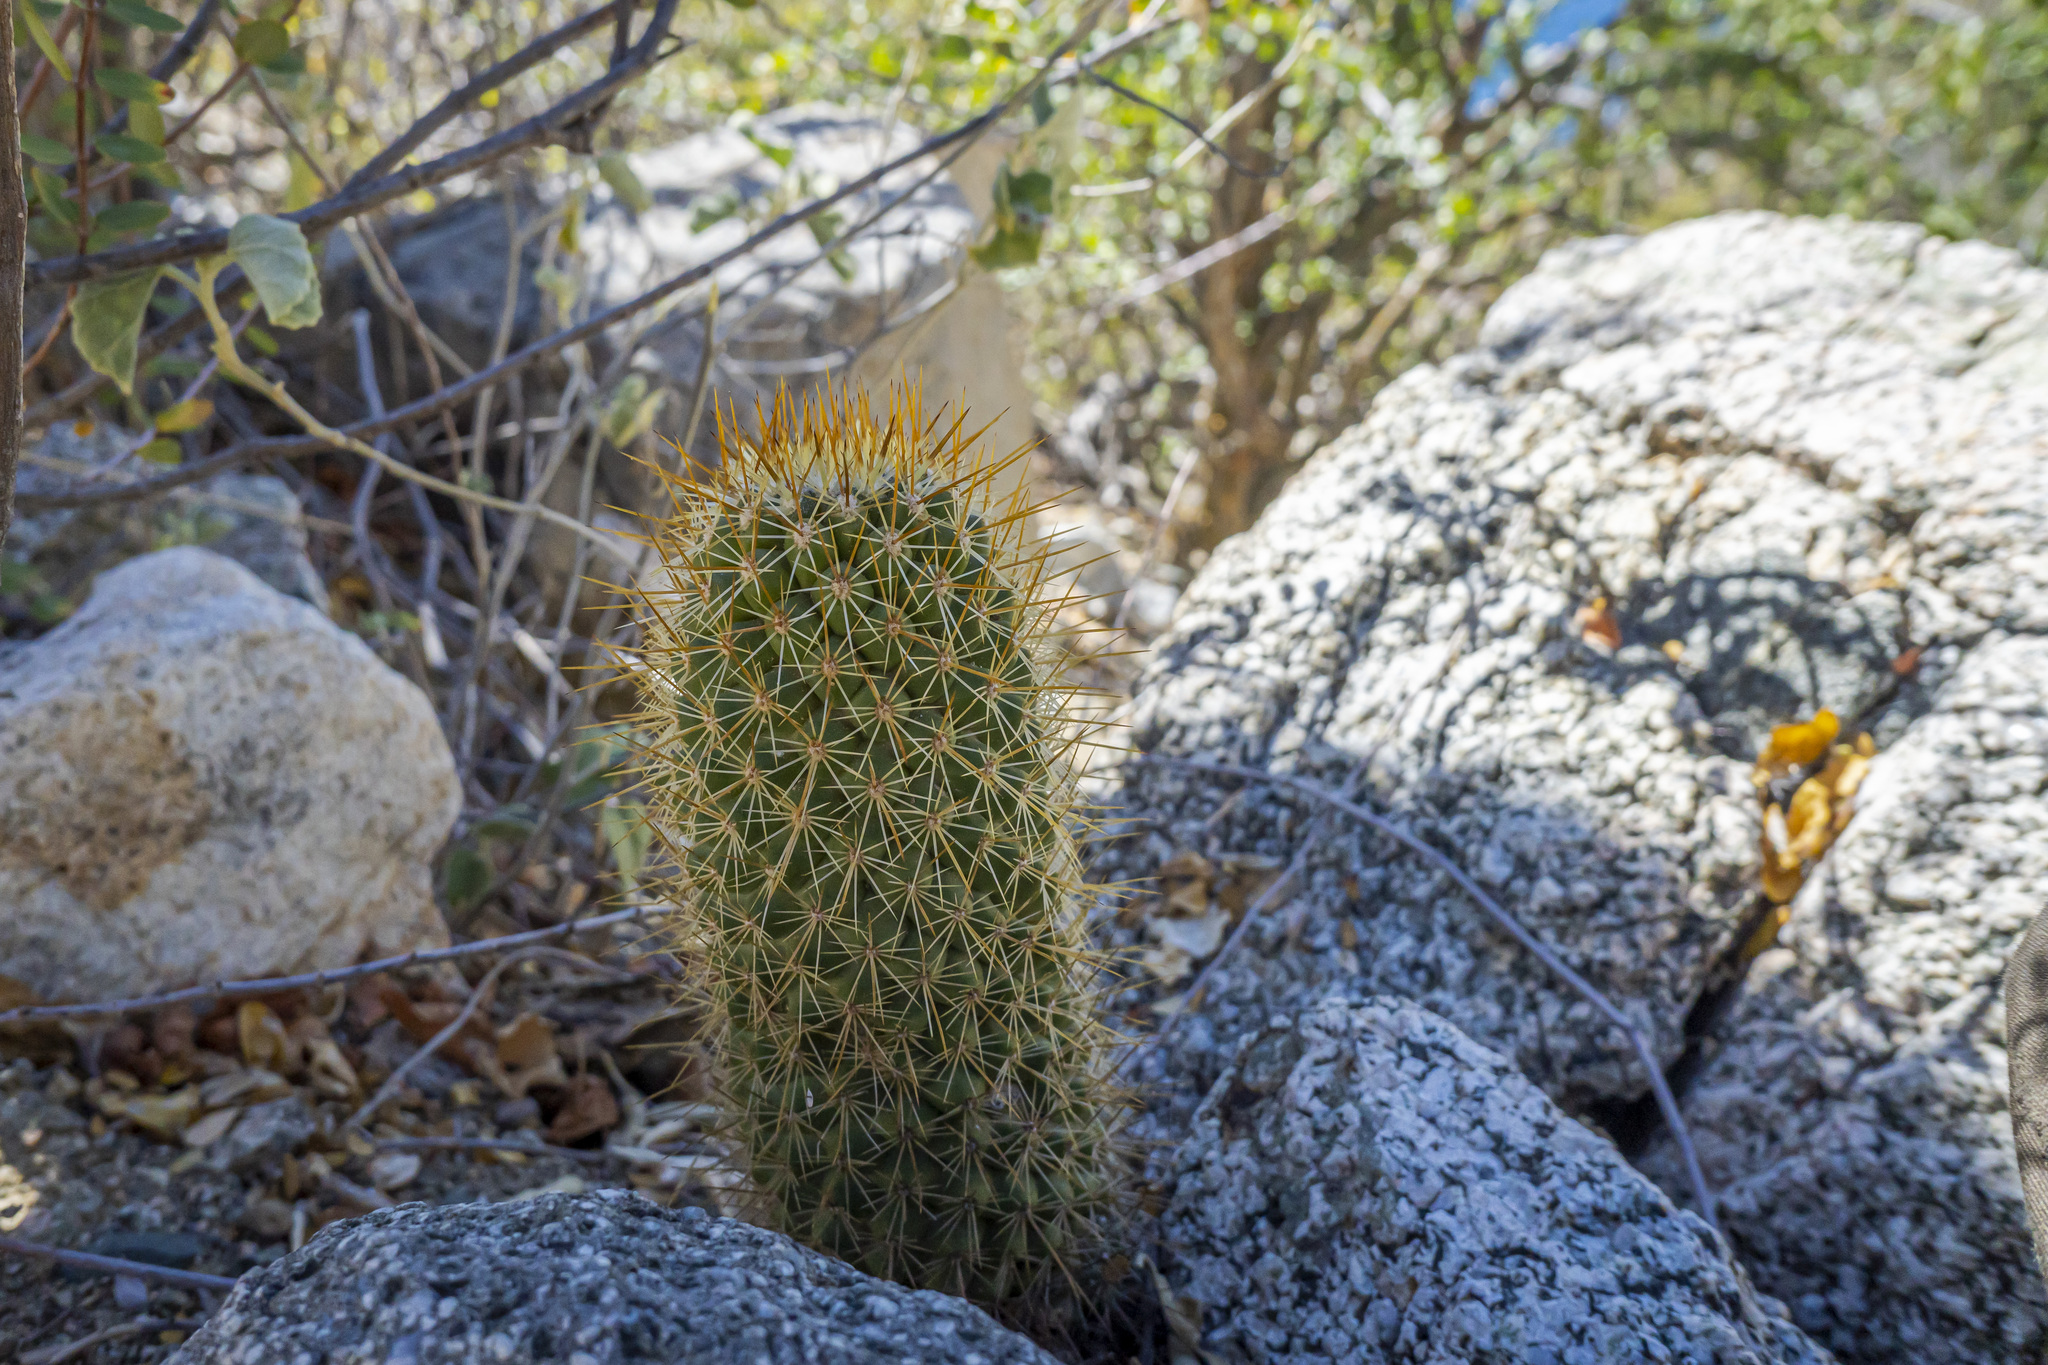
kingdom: Plantae
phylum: Tracheophyta
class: Magnoliopsida
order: Caryophyllales
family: Cactaceae
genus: Cochemiea
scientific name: Cochemiea cerralboa
